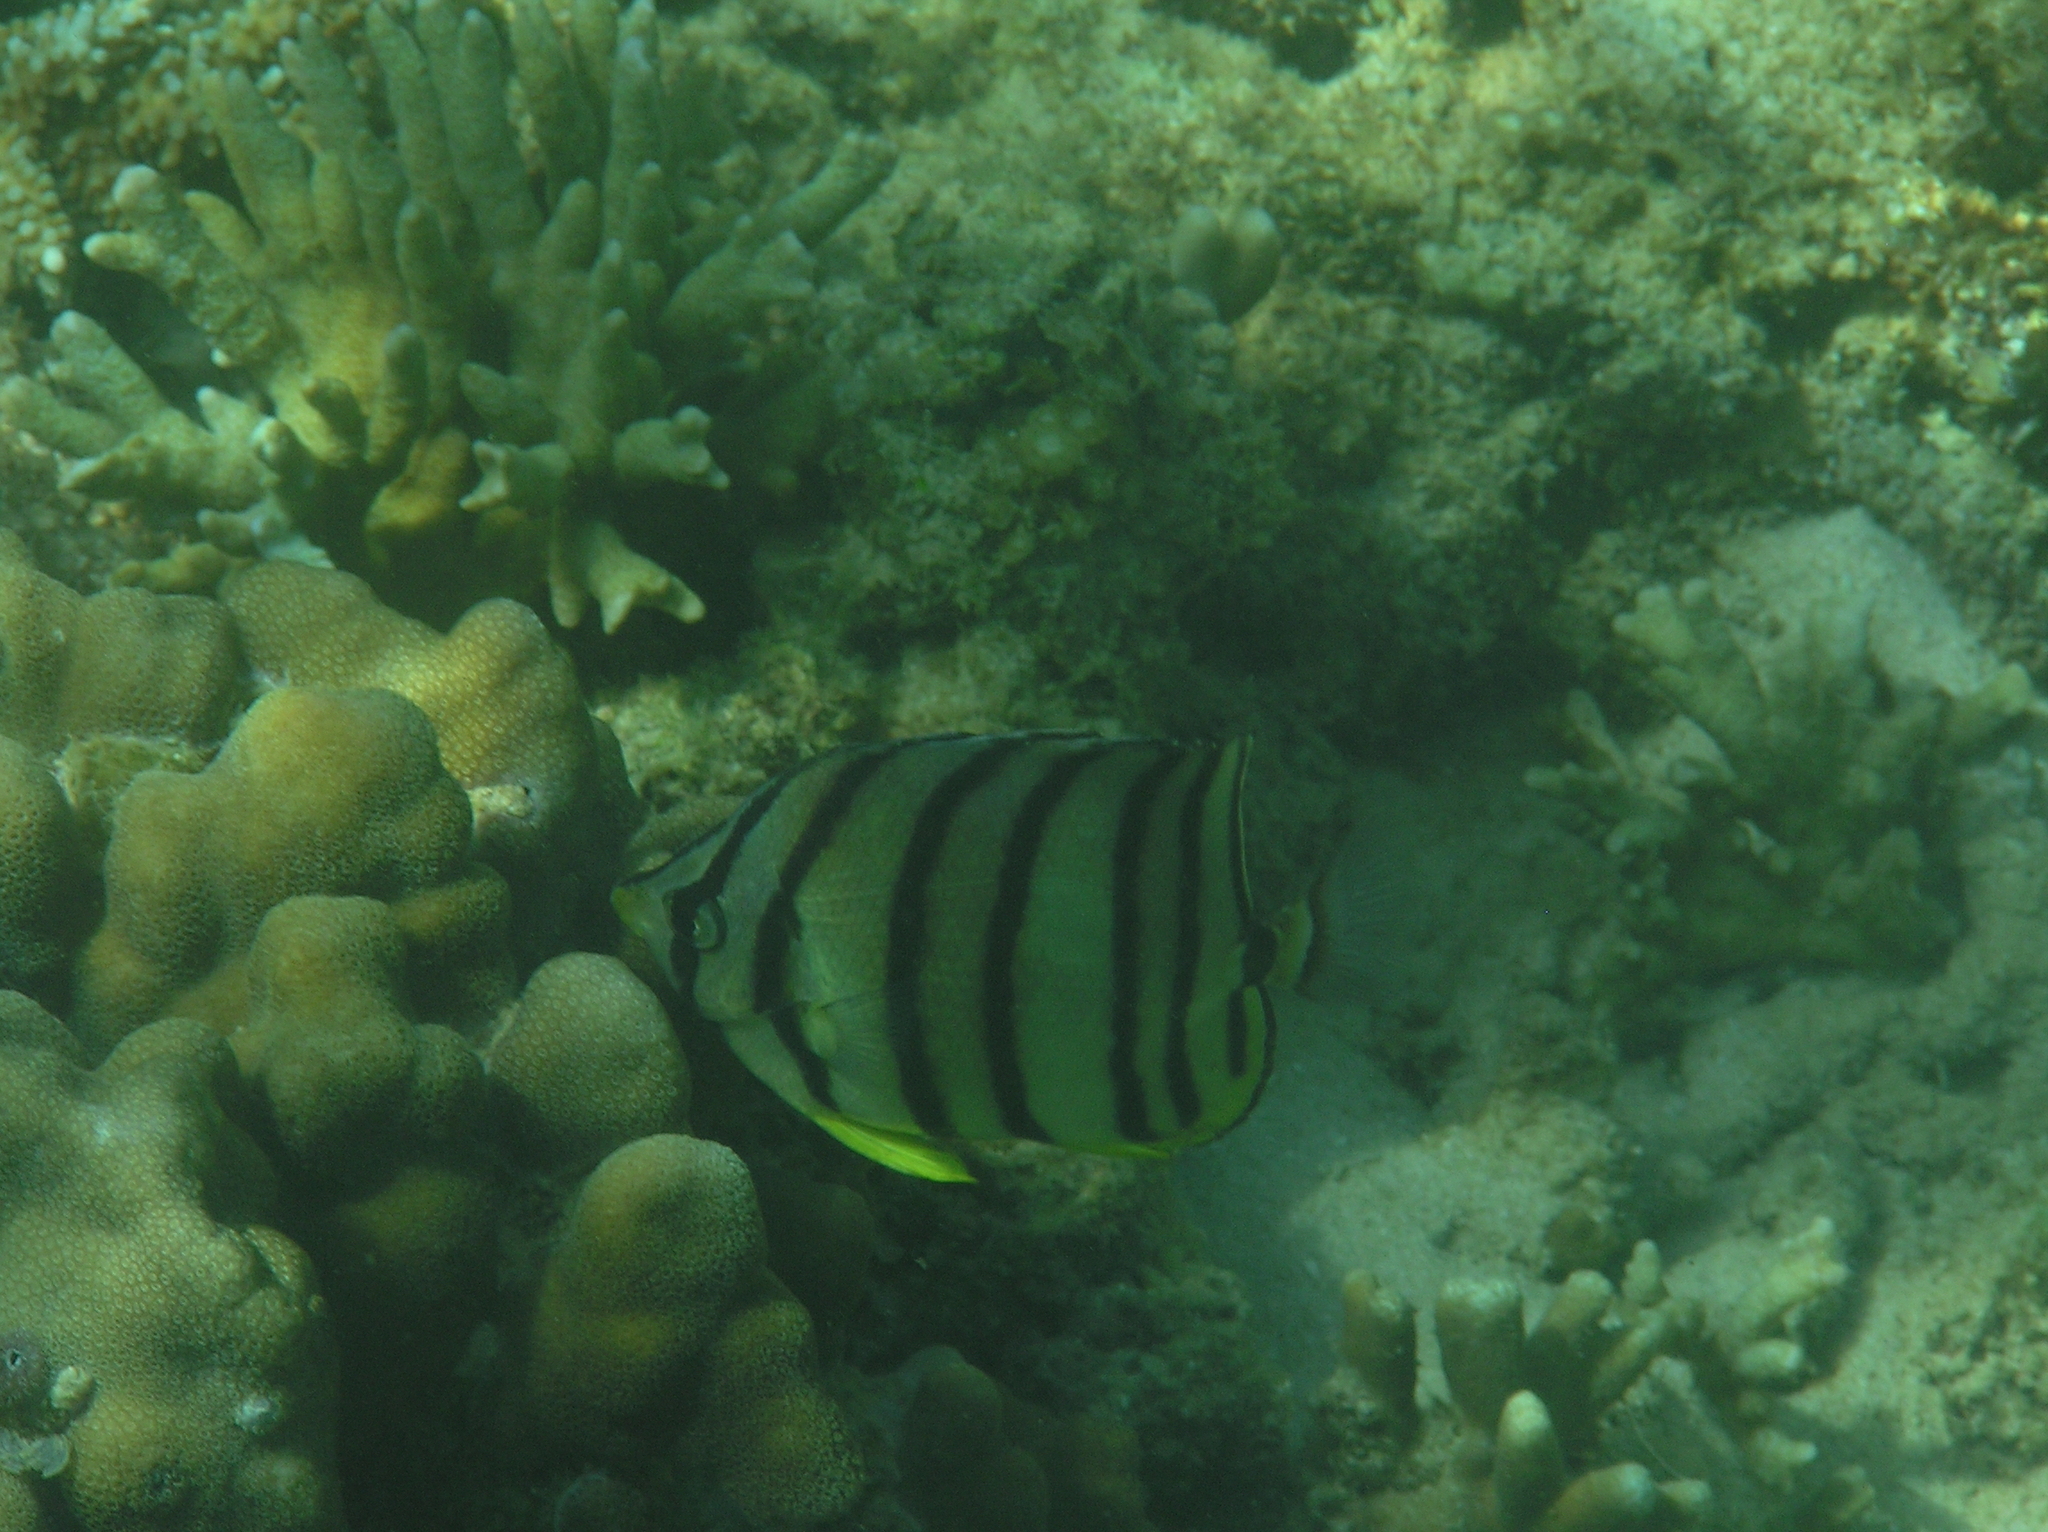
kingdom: Animalia
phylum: Chordata
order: Perciformes
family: Chaetodontidae
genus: Chaetodon
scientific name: Chaetodon octofasciatus
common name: Eightband butterflyfish
